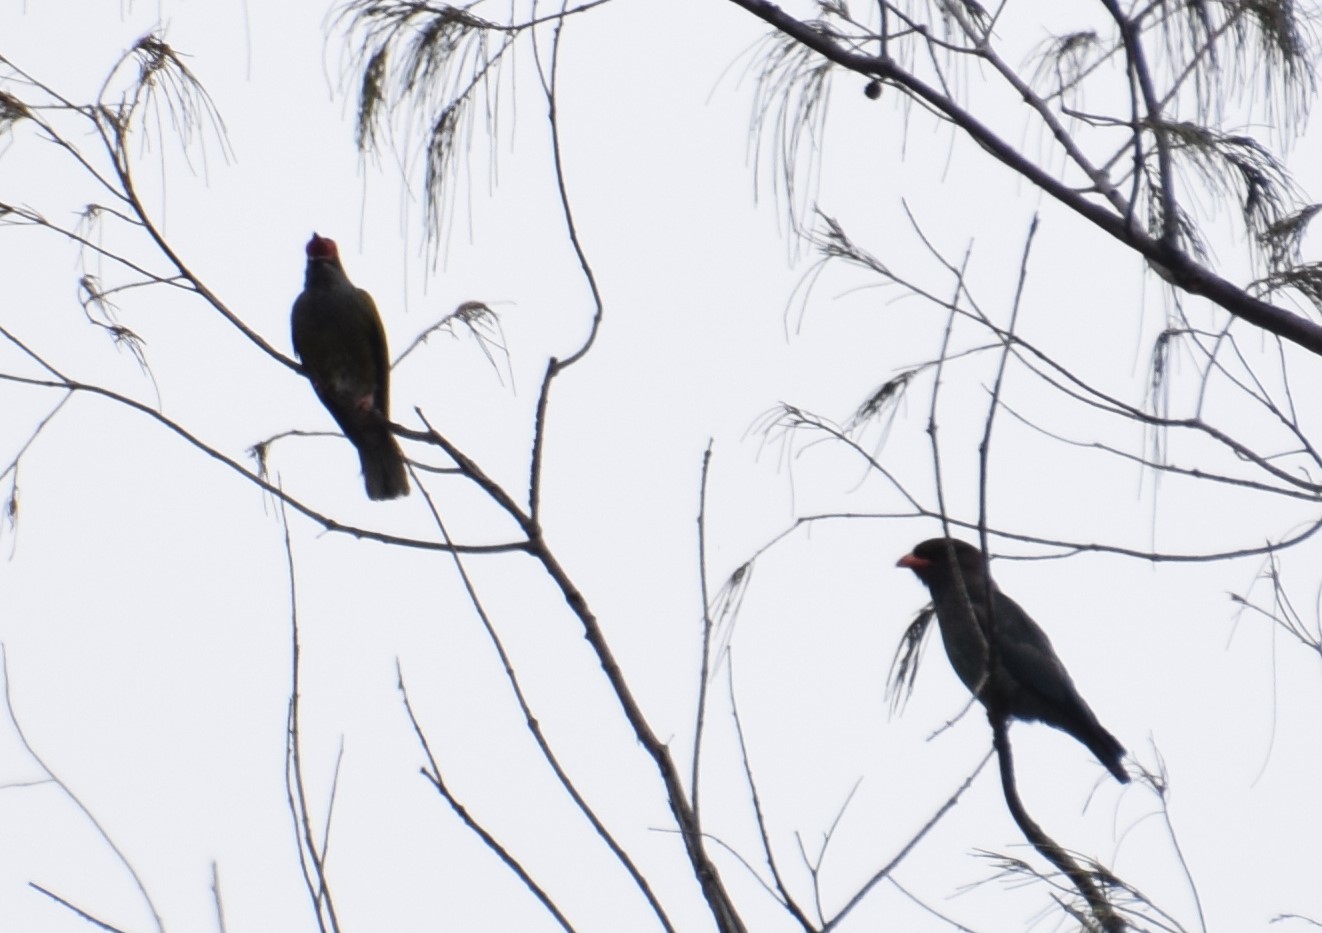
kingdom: Animalia
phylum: Chordata
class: Aves
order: Coraciiformes
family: Coraciidae
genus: Eurystomus
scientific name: Eurystomus orientalis
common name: Oriental dollarbird
